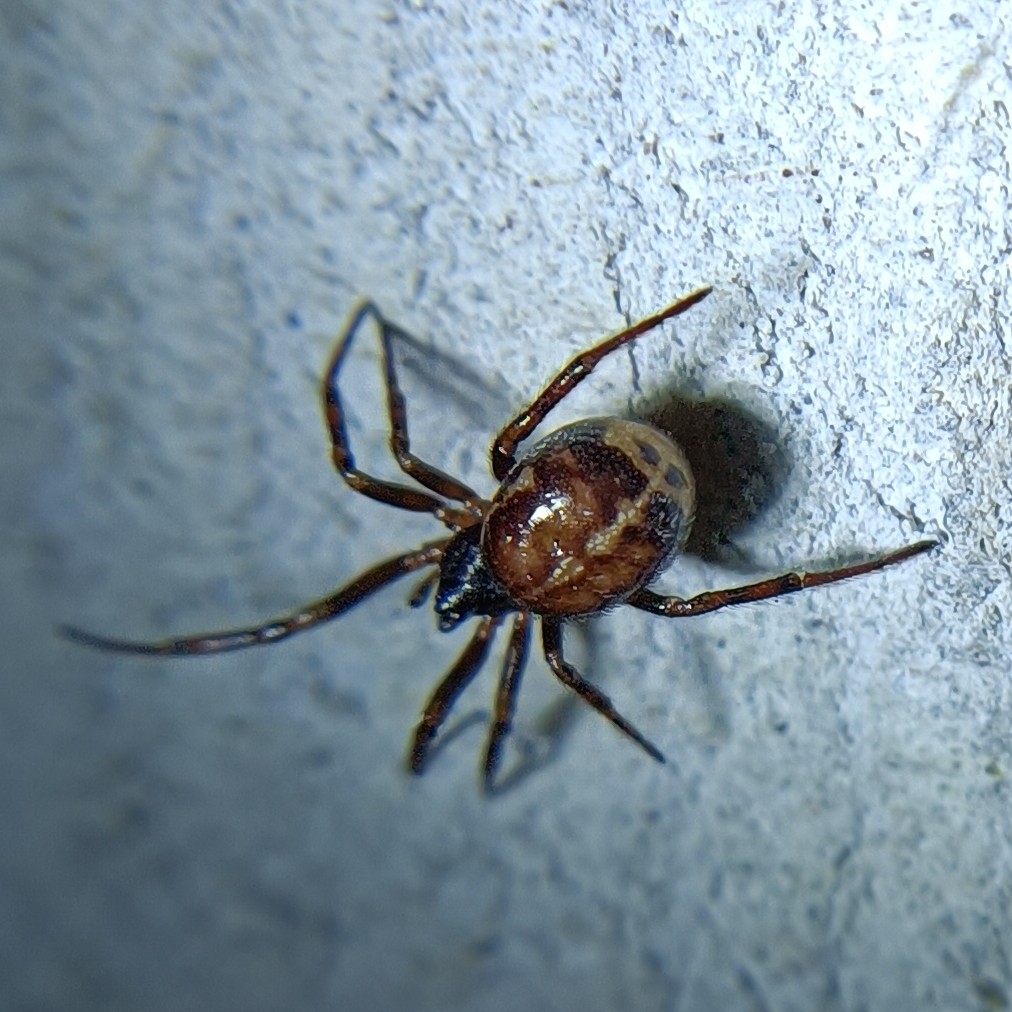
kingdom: Animalia
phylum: Arthropoda
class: Arachnida
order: Araneae
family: Theridiidae
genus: Steatoda
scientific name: Steatoda bipunctata
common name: False widow
